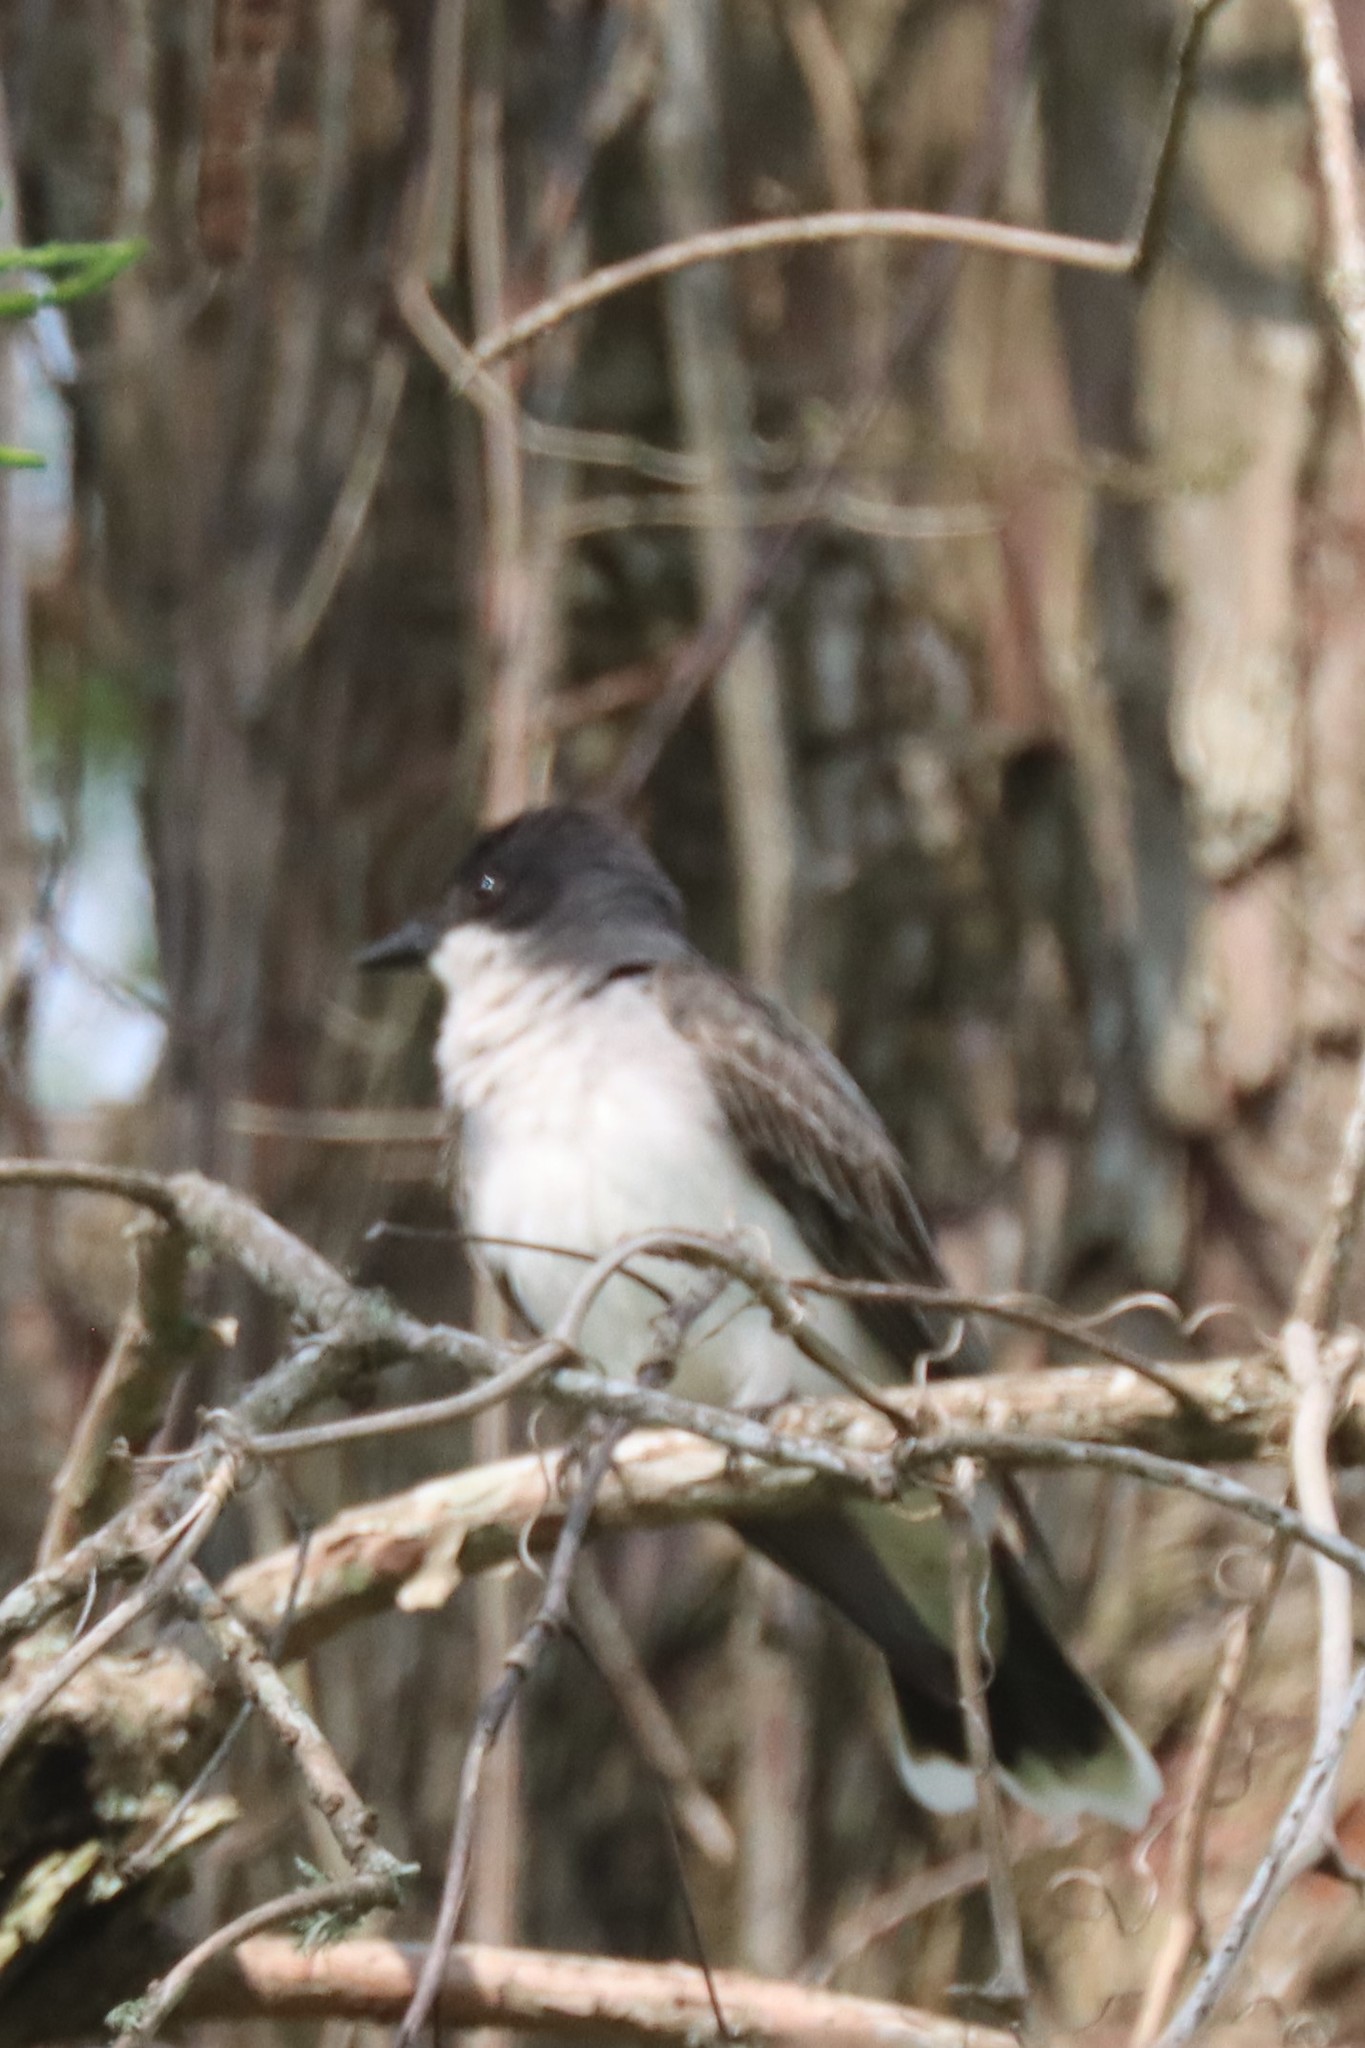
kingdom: Animalia
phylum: Chordata
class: Aves
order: Passeriformes
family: Tyrannidae
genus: Tyrannus
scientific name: Tyrannus tyrannus
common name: Eastern kingbird
